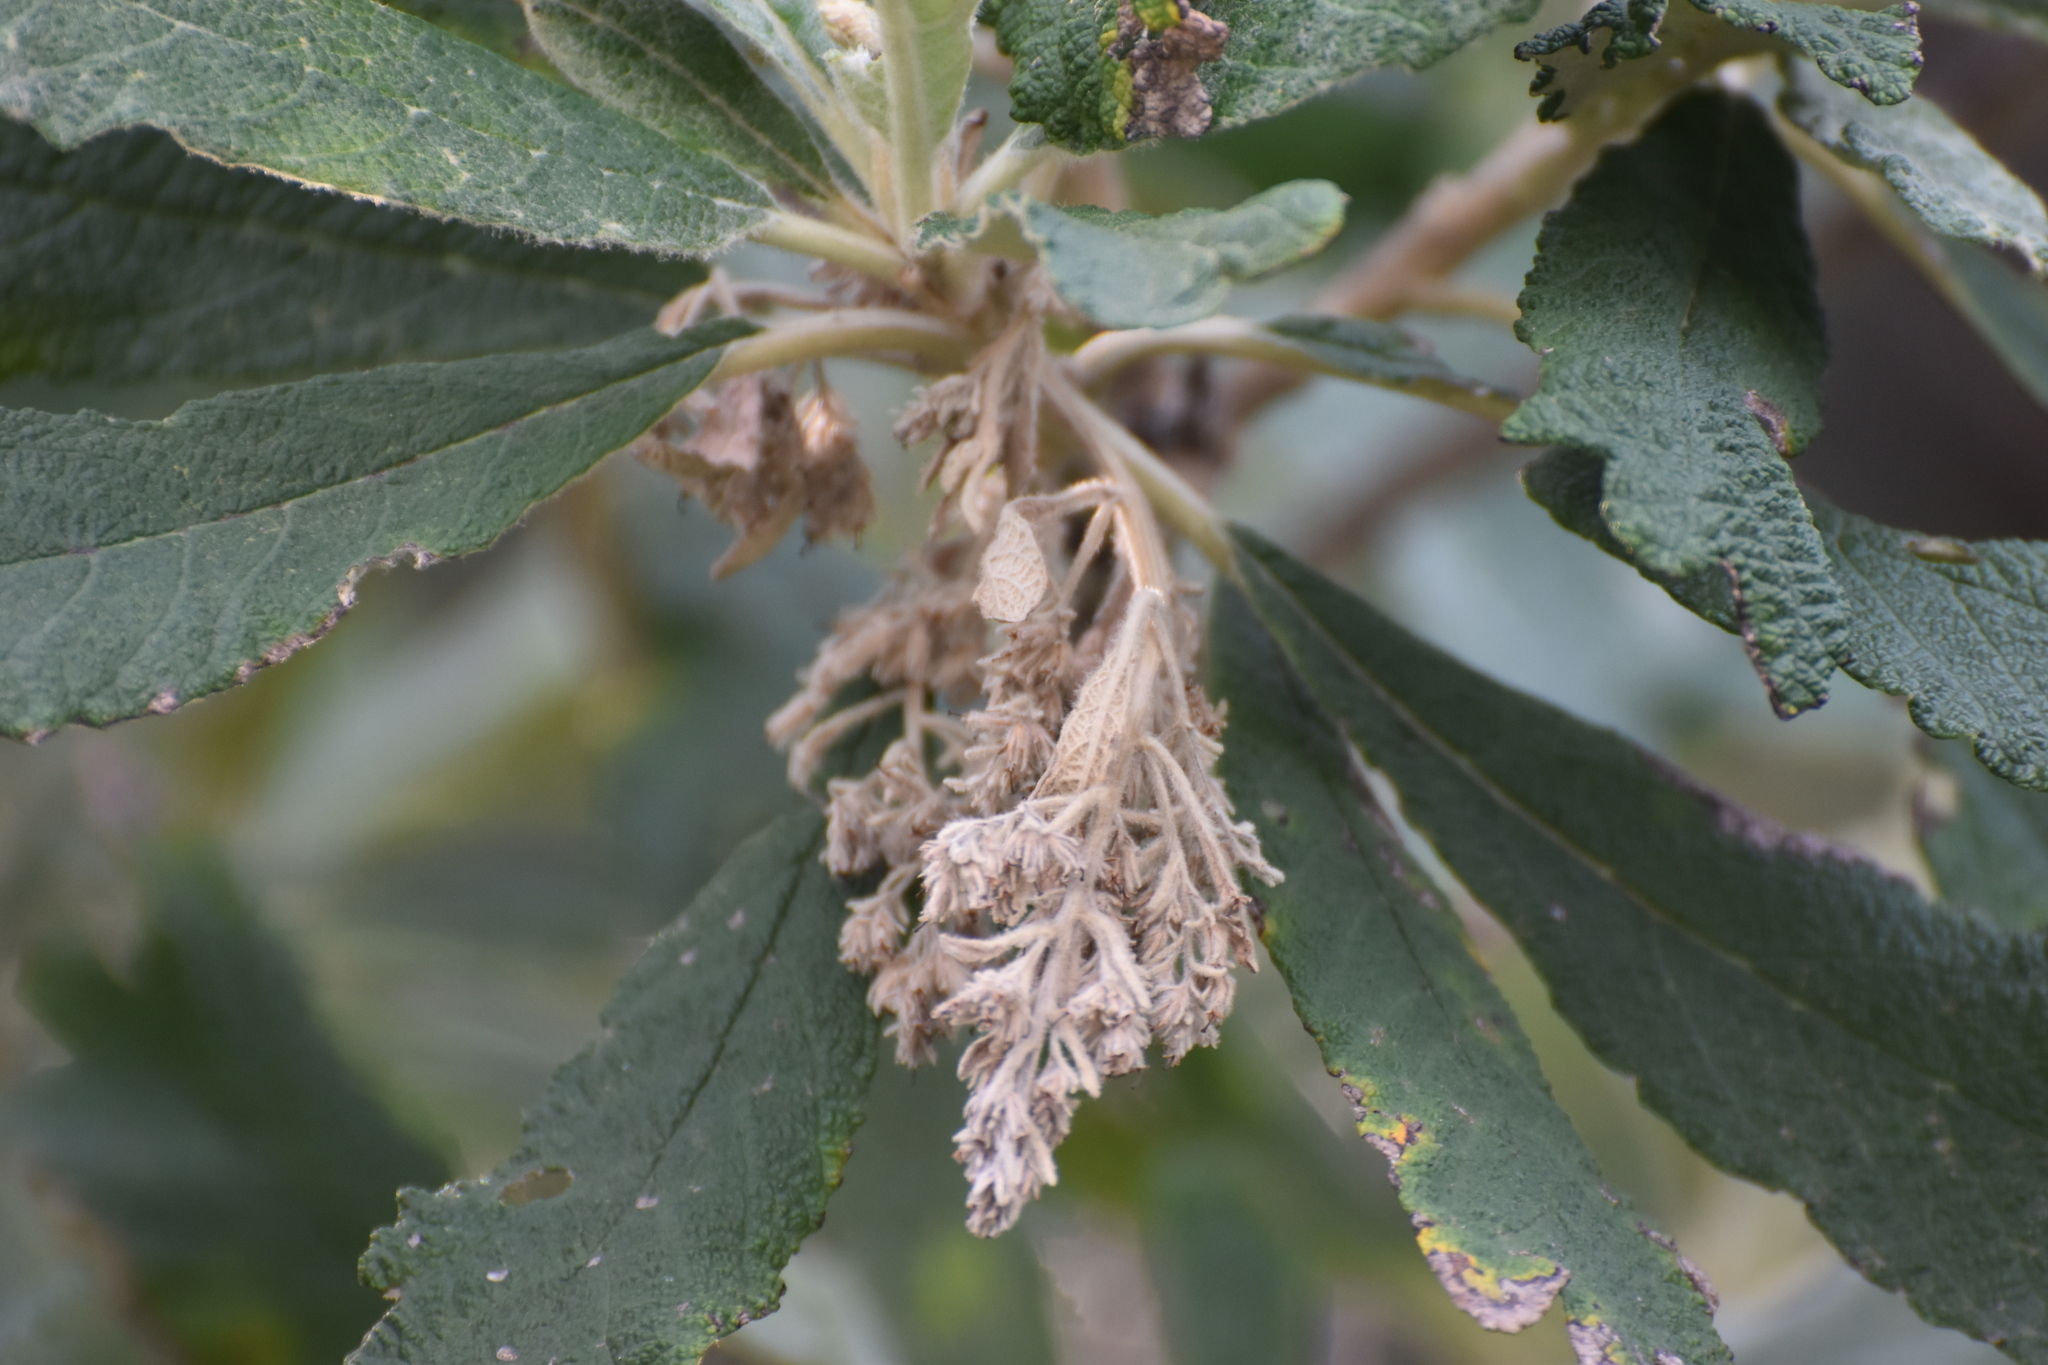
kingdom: Plantae
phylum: Tracheophyta
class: Magnoliopsida
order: Asterales
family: Asteraceae
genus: Tarchonanthus
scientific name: Tarchonanthus trilobus
